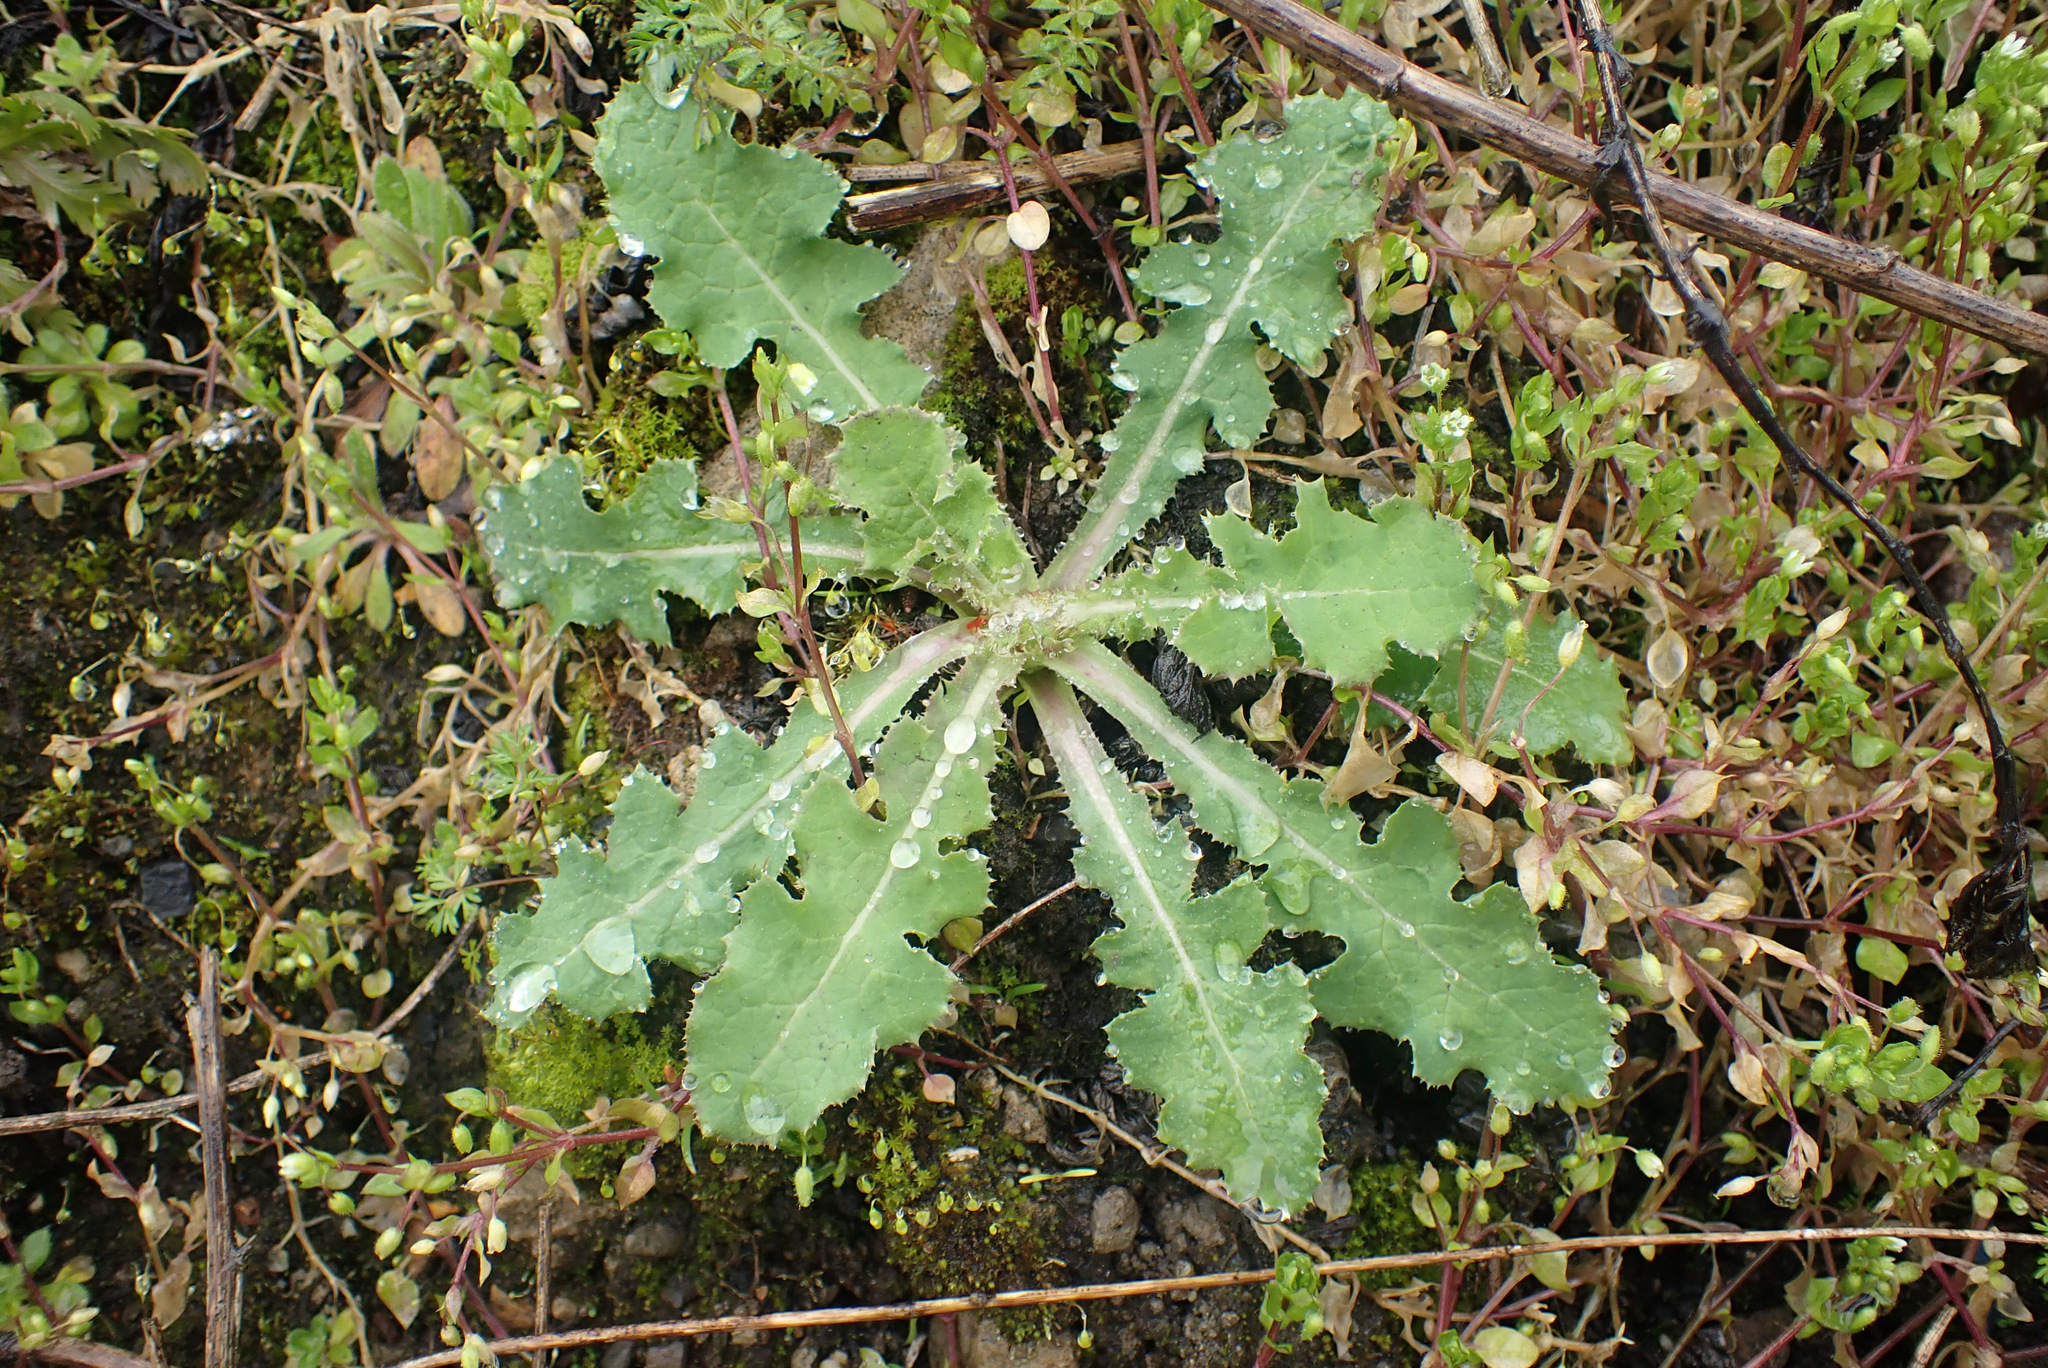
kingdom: Plantae
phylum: Tracheophyta
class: Magnoliopsida
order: Asterales
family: Asteraceae
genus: Sonchus
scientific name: Sonchus asper
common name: Prickly sow-thistle
